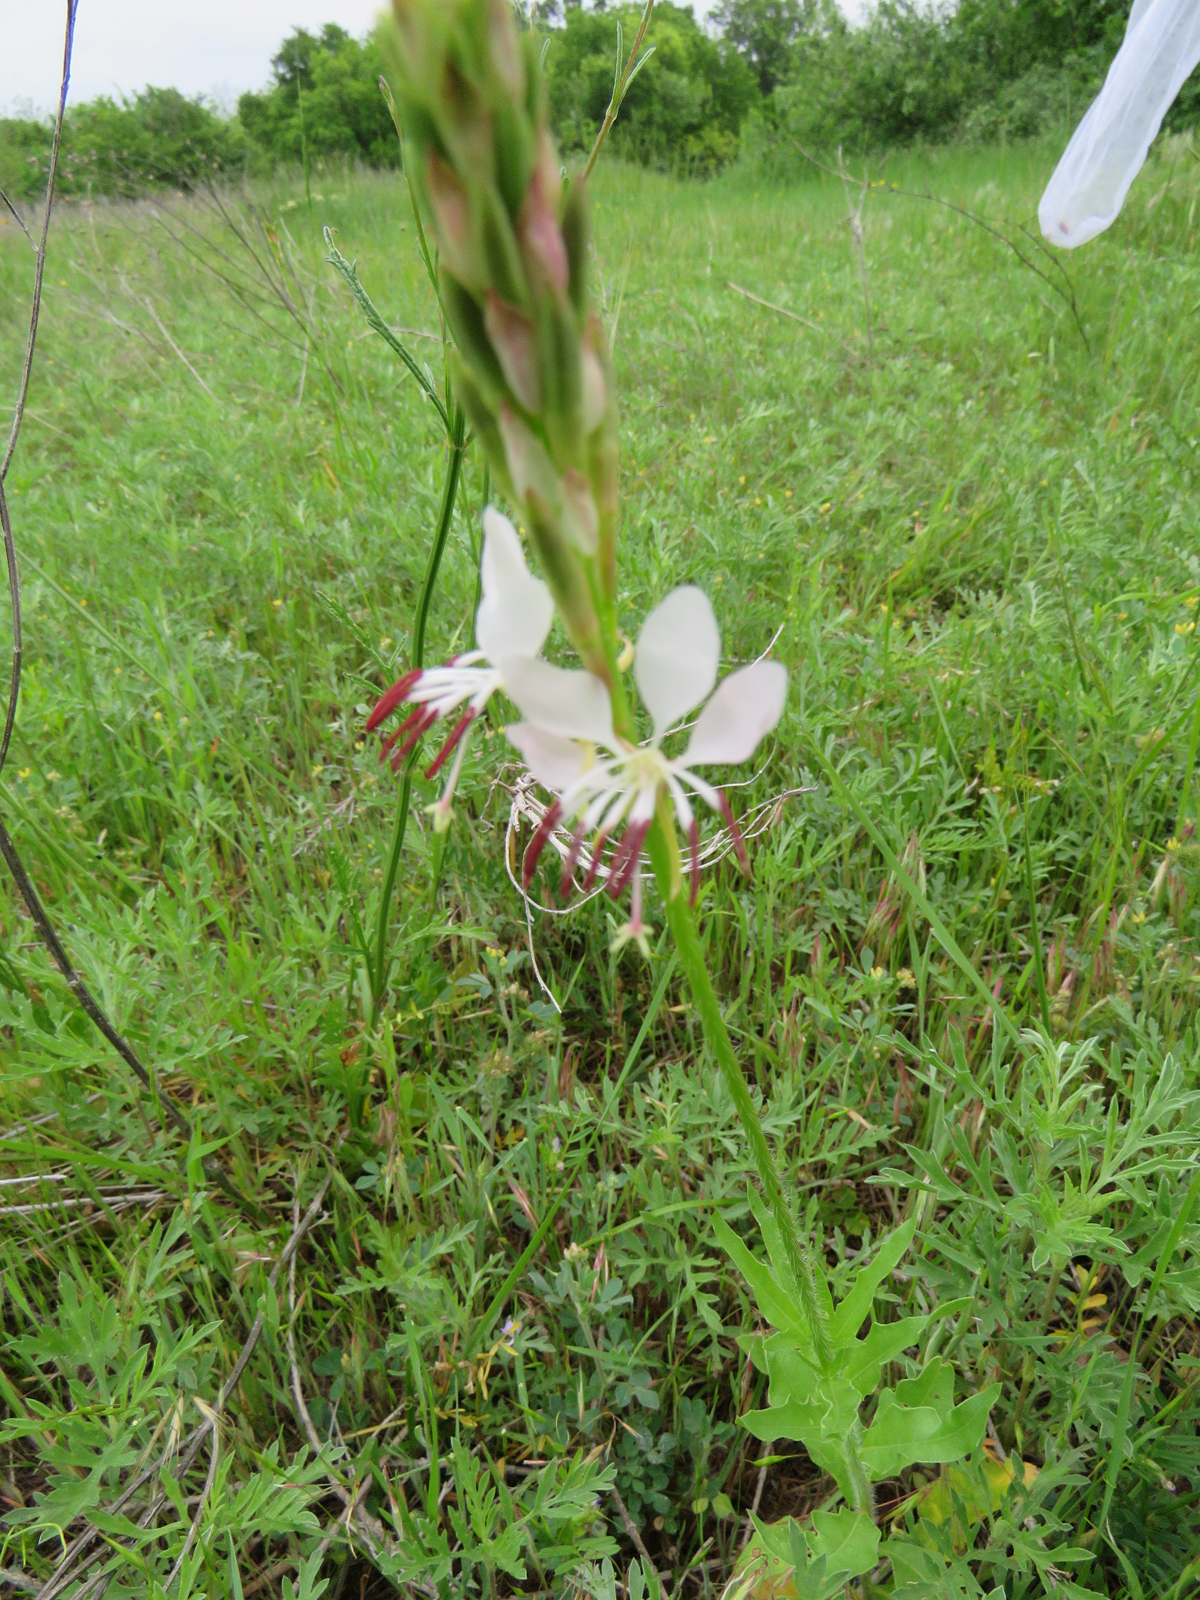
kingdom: Plantae
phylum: Tracheophyta
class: Magnoliopsida
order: Myrtales
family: Onagraceae
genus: Oenothera
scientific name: Oenothera suffulta
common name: Kisses
